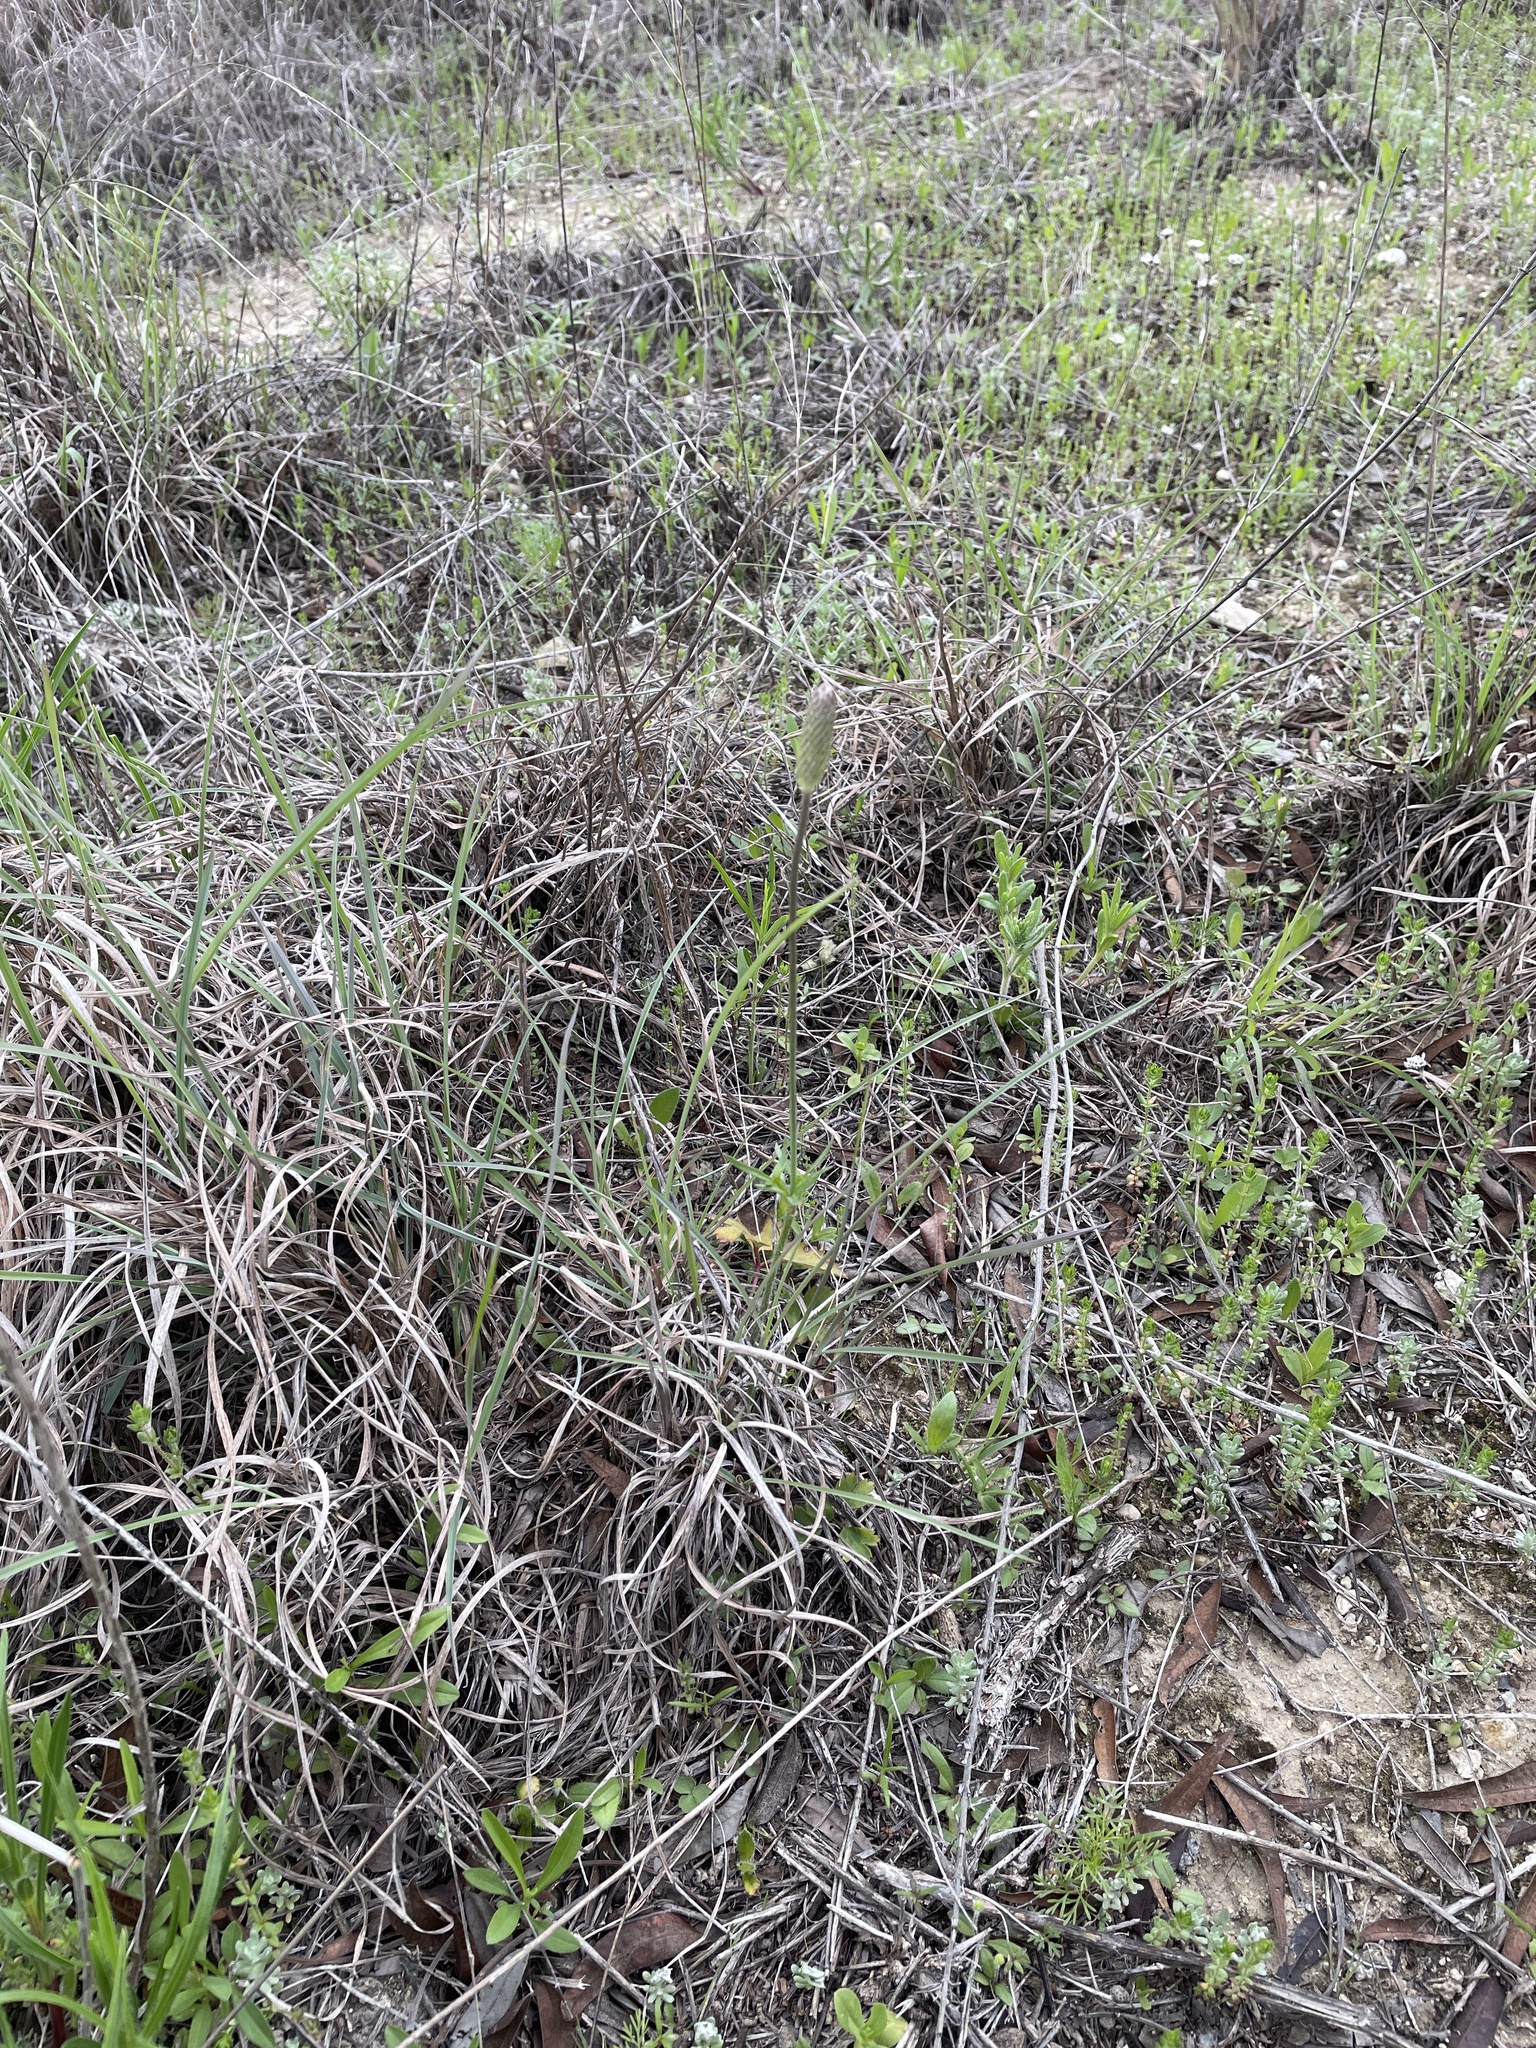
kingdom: Plantae
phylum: Tracheophyta
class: Magnoliopsida
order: Ranunculales
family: Ranunculaceae
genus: Anemone
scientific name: Anemone berlandieri
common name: Ten-petal anemone
